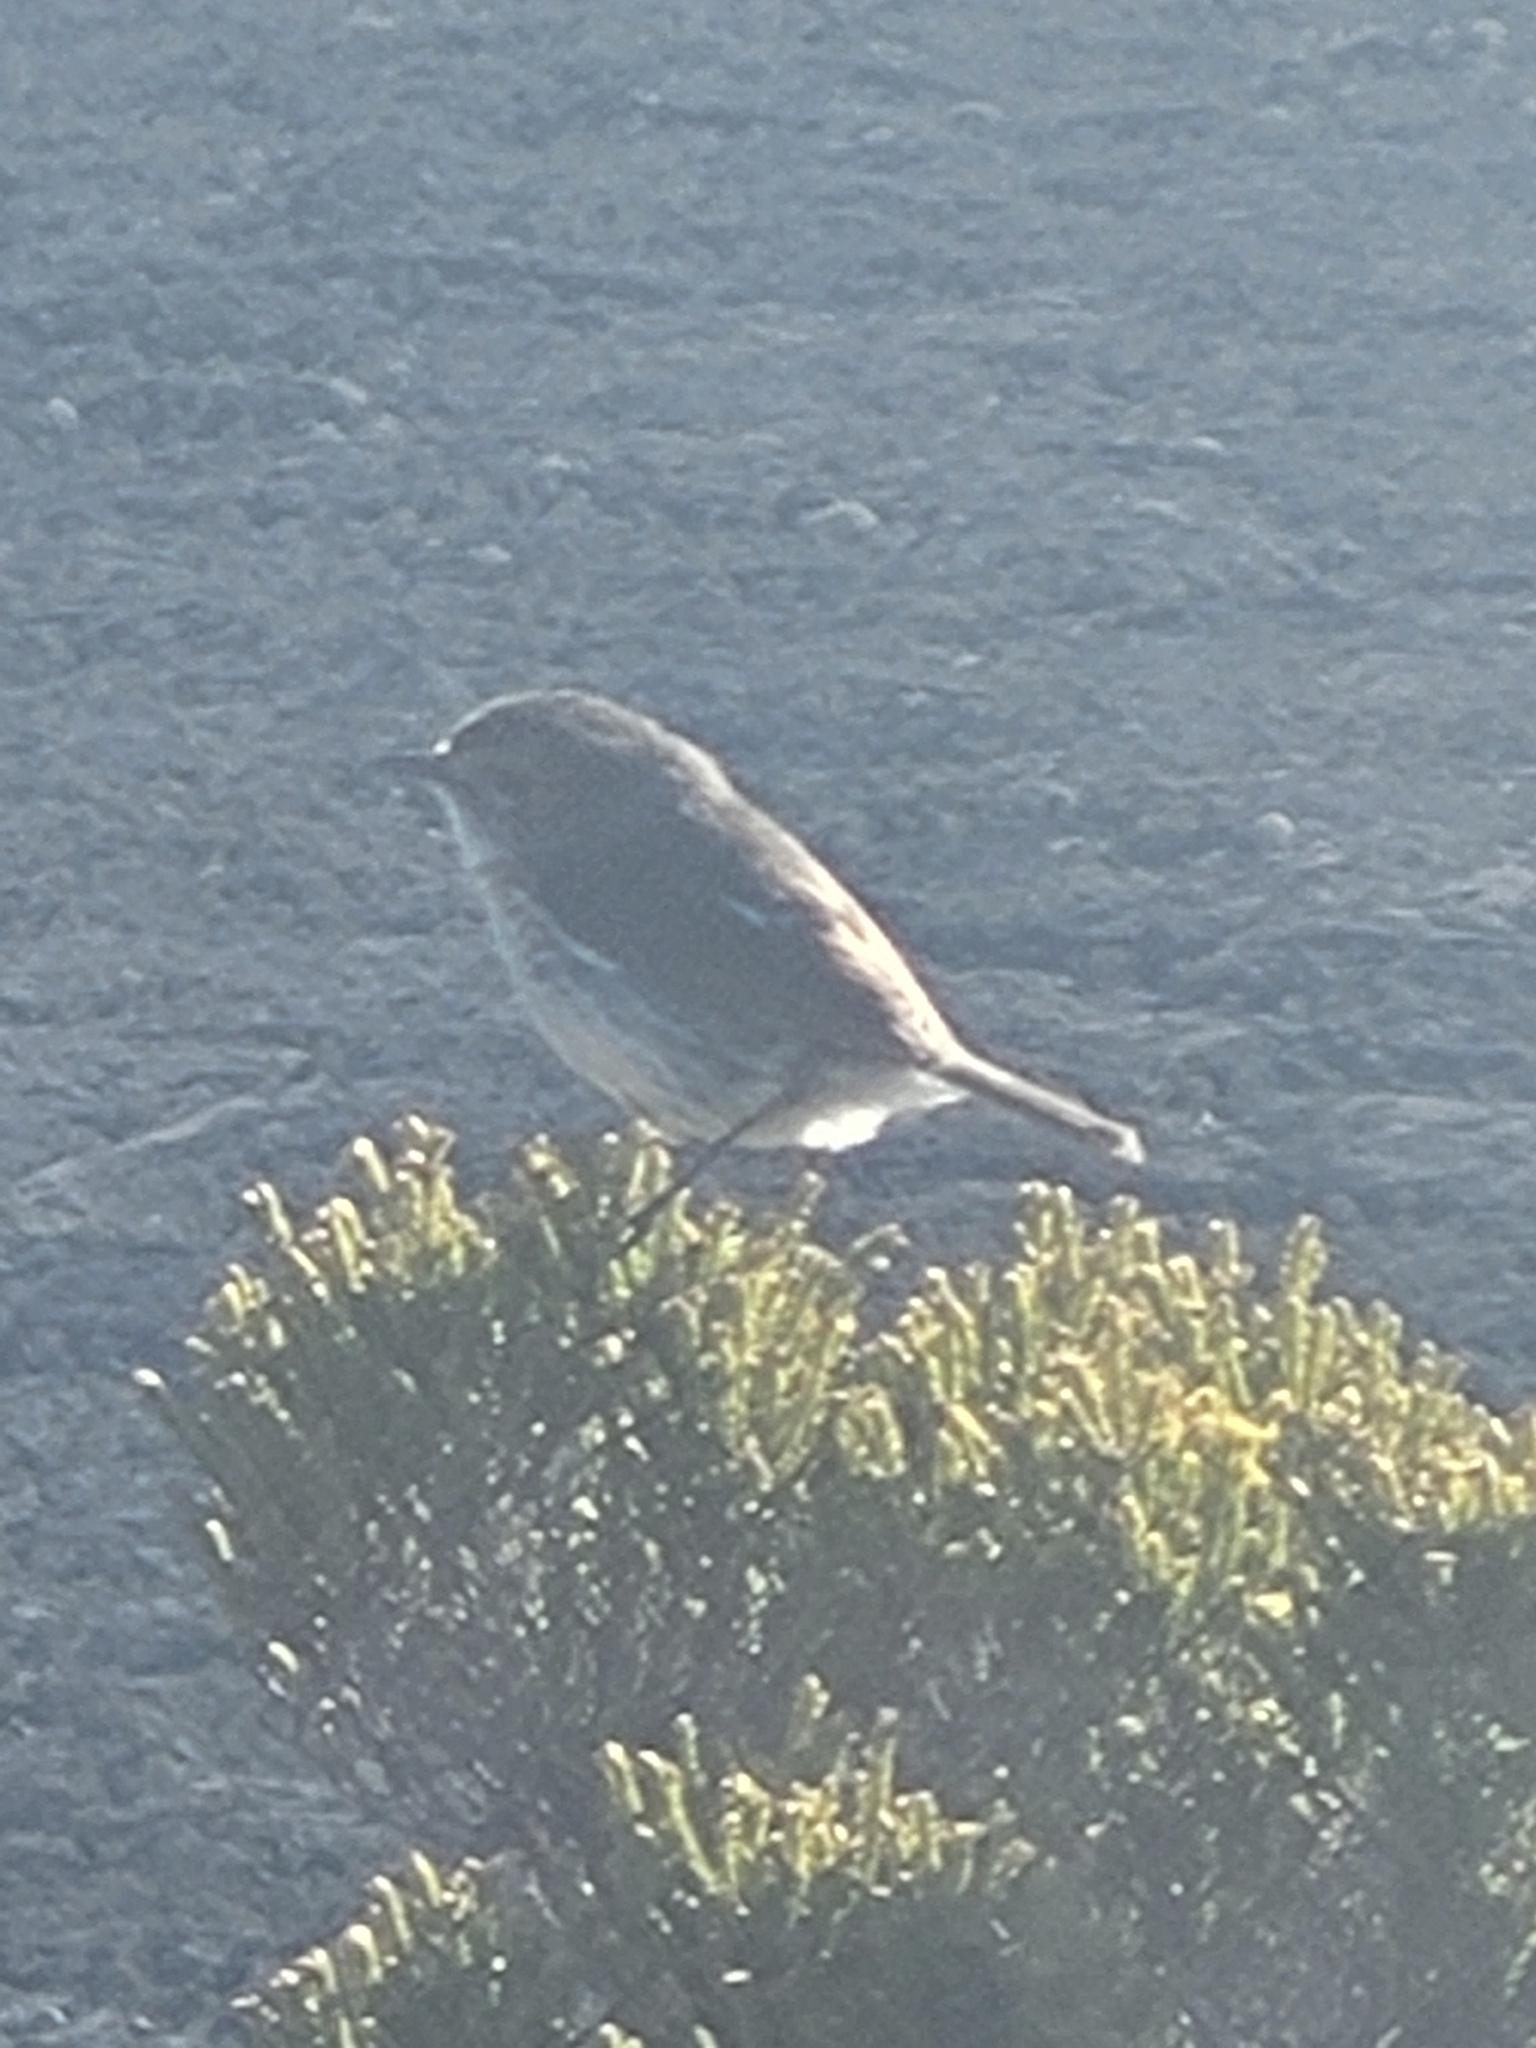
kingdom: Animalia
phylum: Chordata
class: Aves
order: Passeriformes
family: Muscicapidae
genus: Saxicola
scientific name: Saxicola tectes
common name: Reunion stonechat
